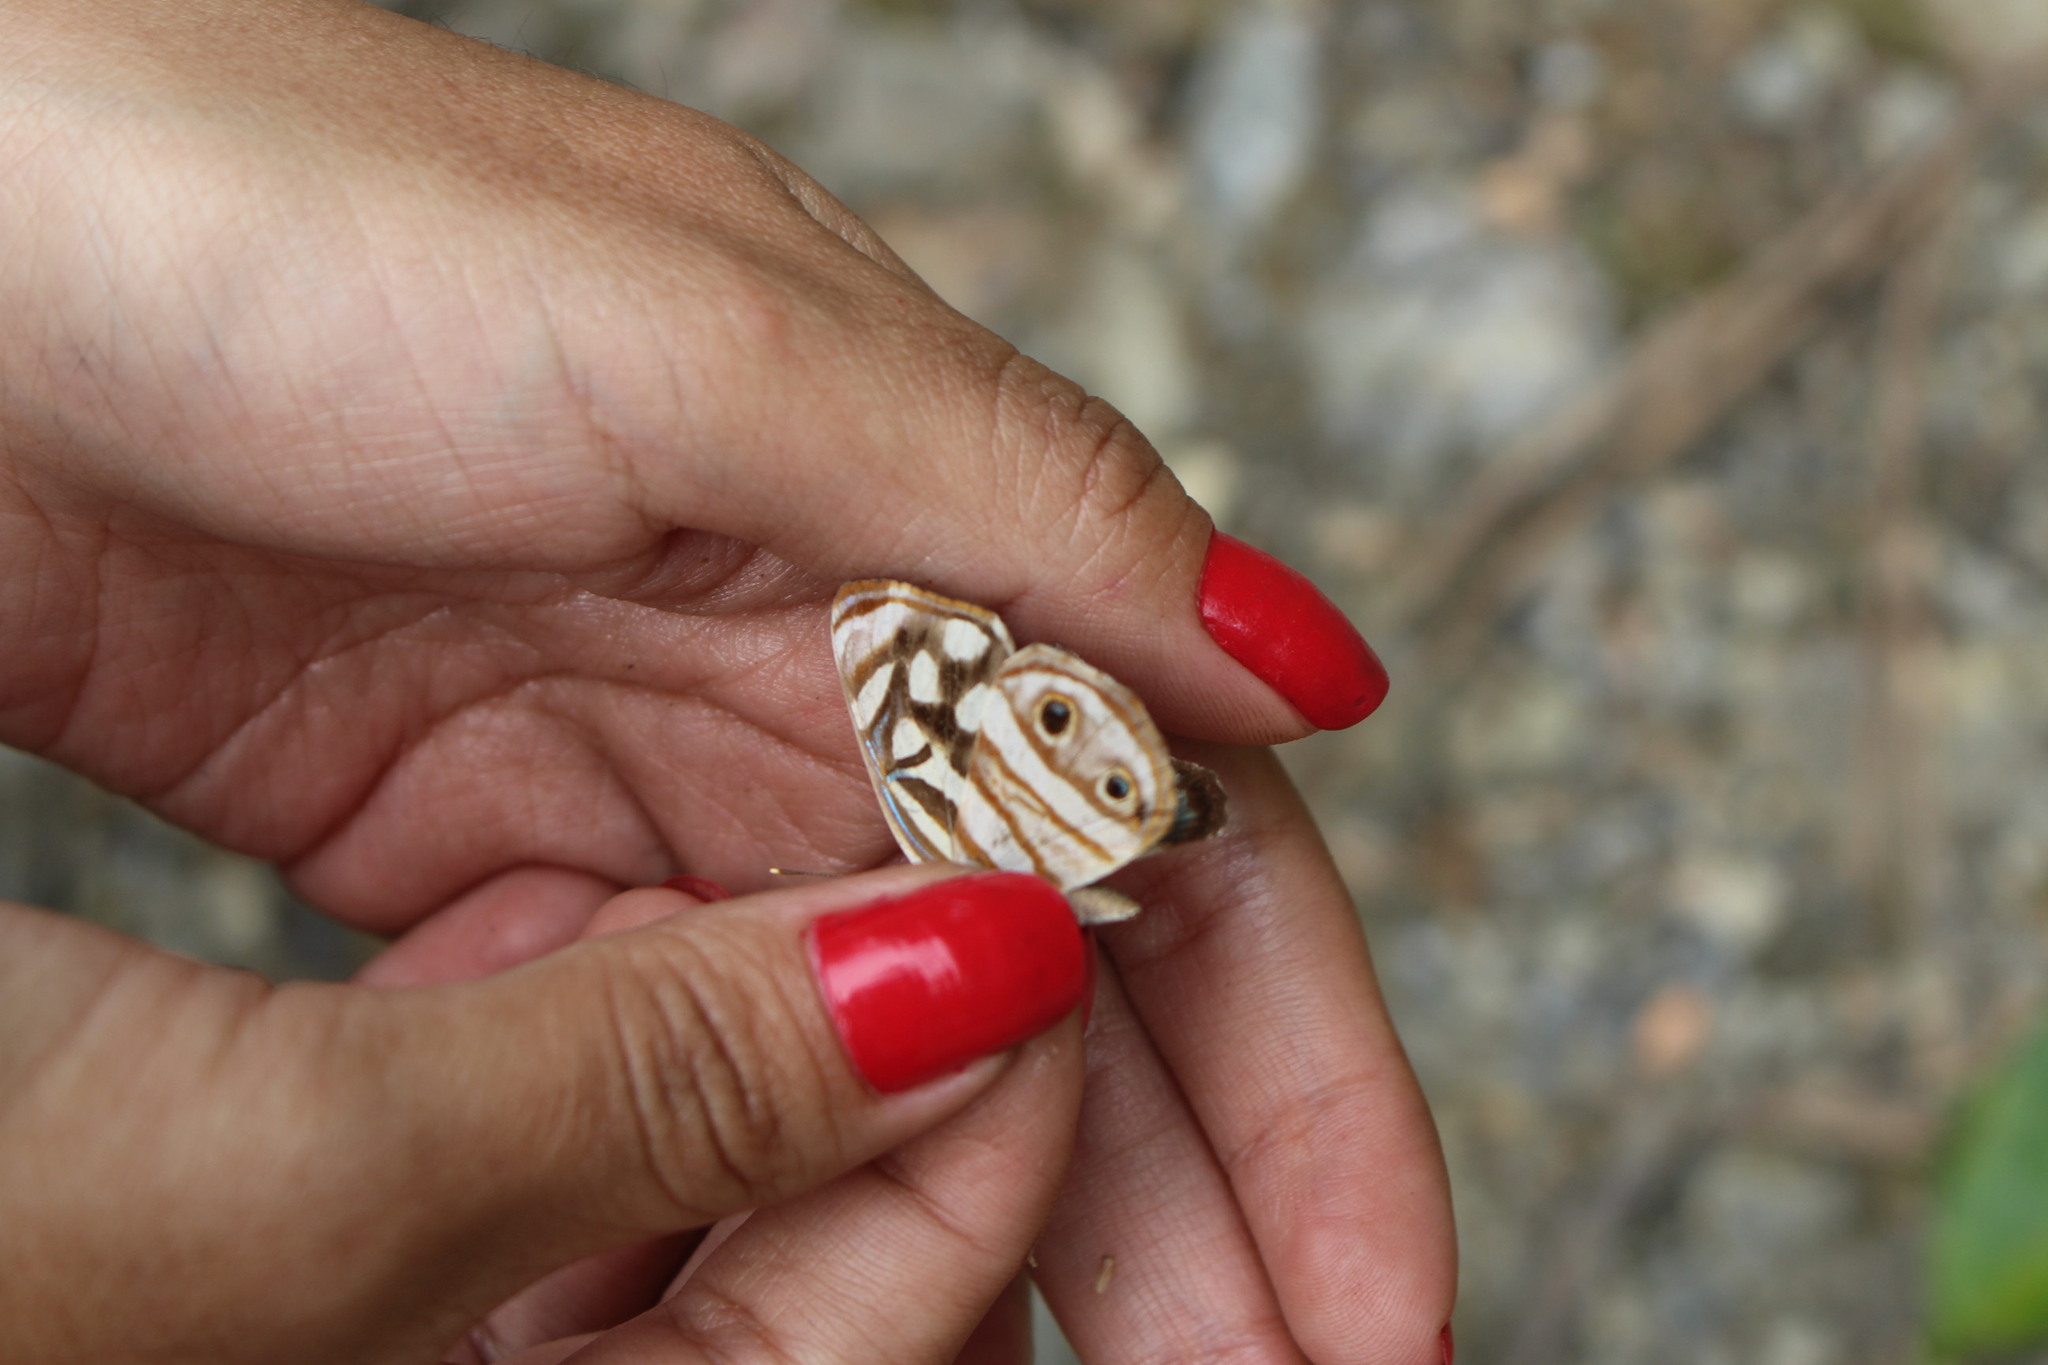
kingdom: Animalia
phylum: Arthropoda
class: Insecta
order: Lepidoptera
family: Nymphalidae
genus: Dynamine
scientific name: Dynamine mylitta
